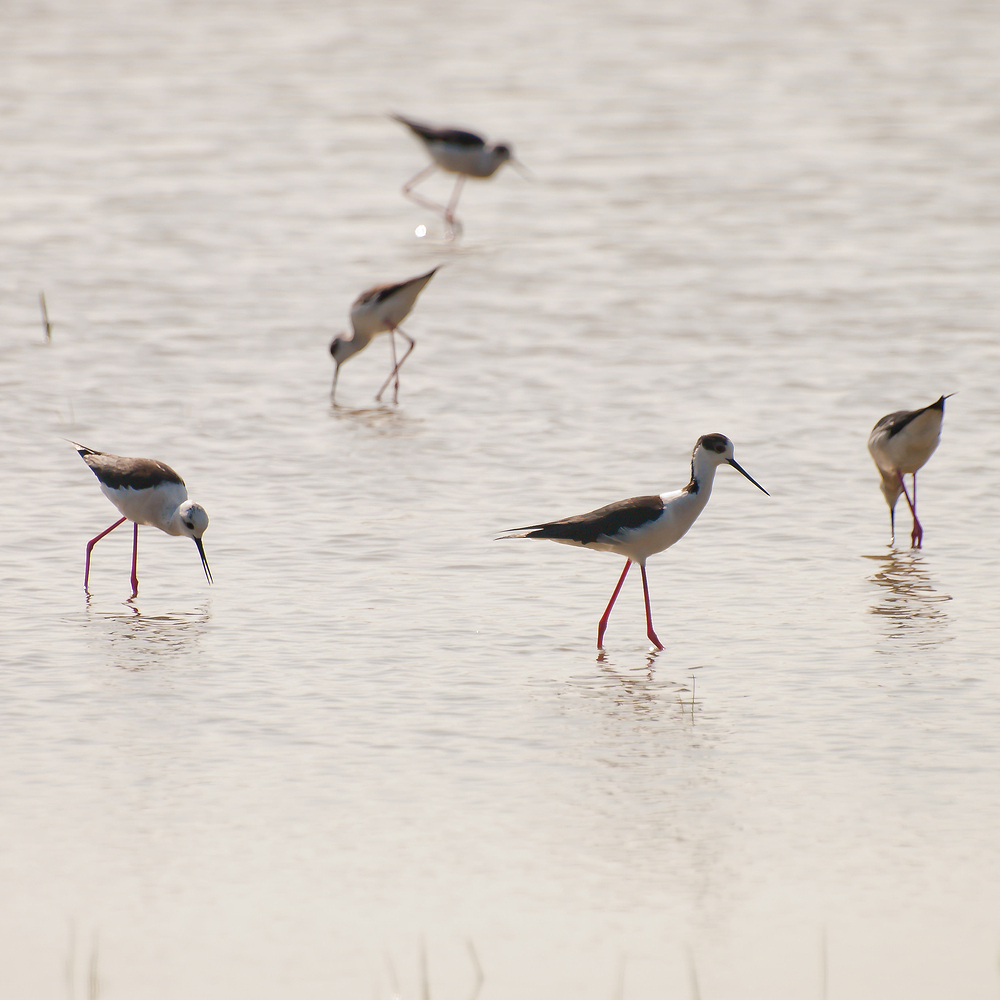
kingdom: Animalia
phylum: Chordata
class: Aves
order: Charadriiformes
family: Recurvirostridae
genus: Himantopus
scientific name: Himantopus himantopus
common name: Black-winged stilt
